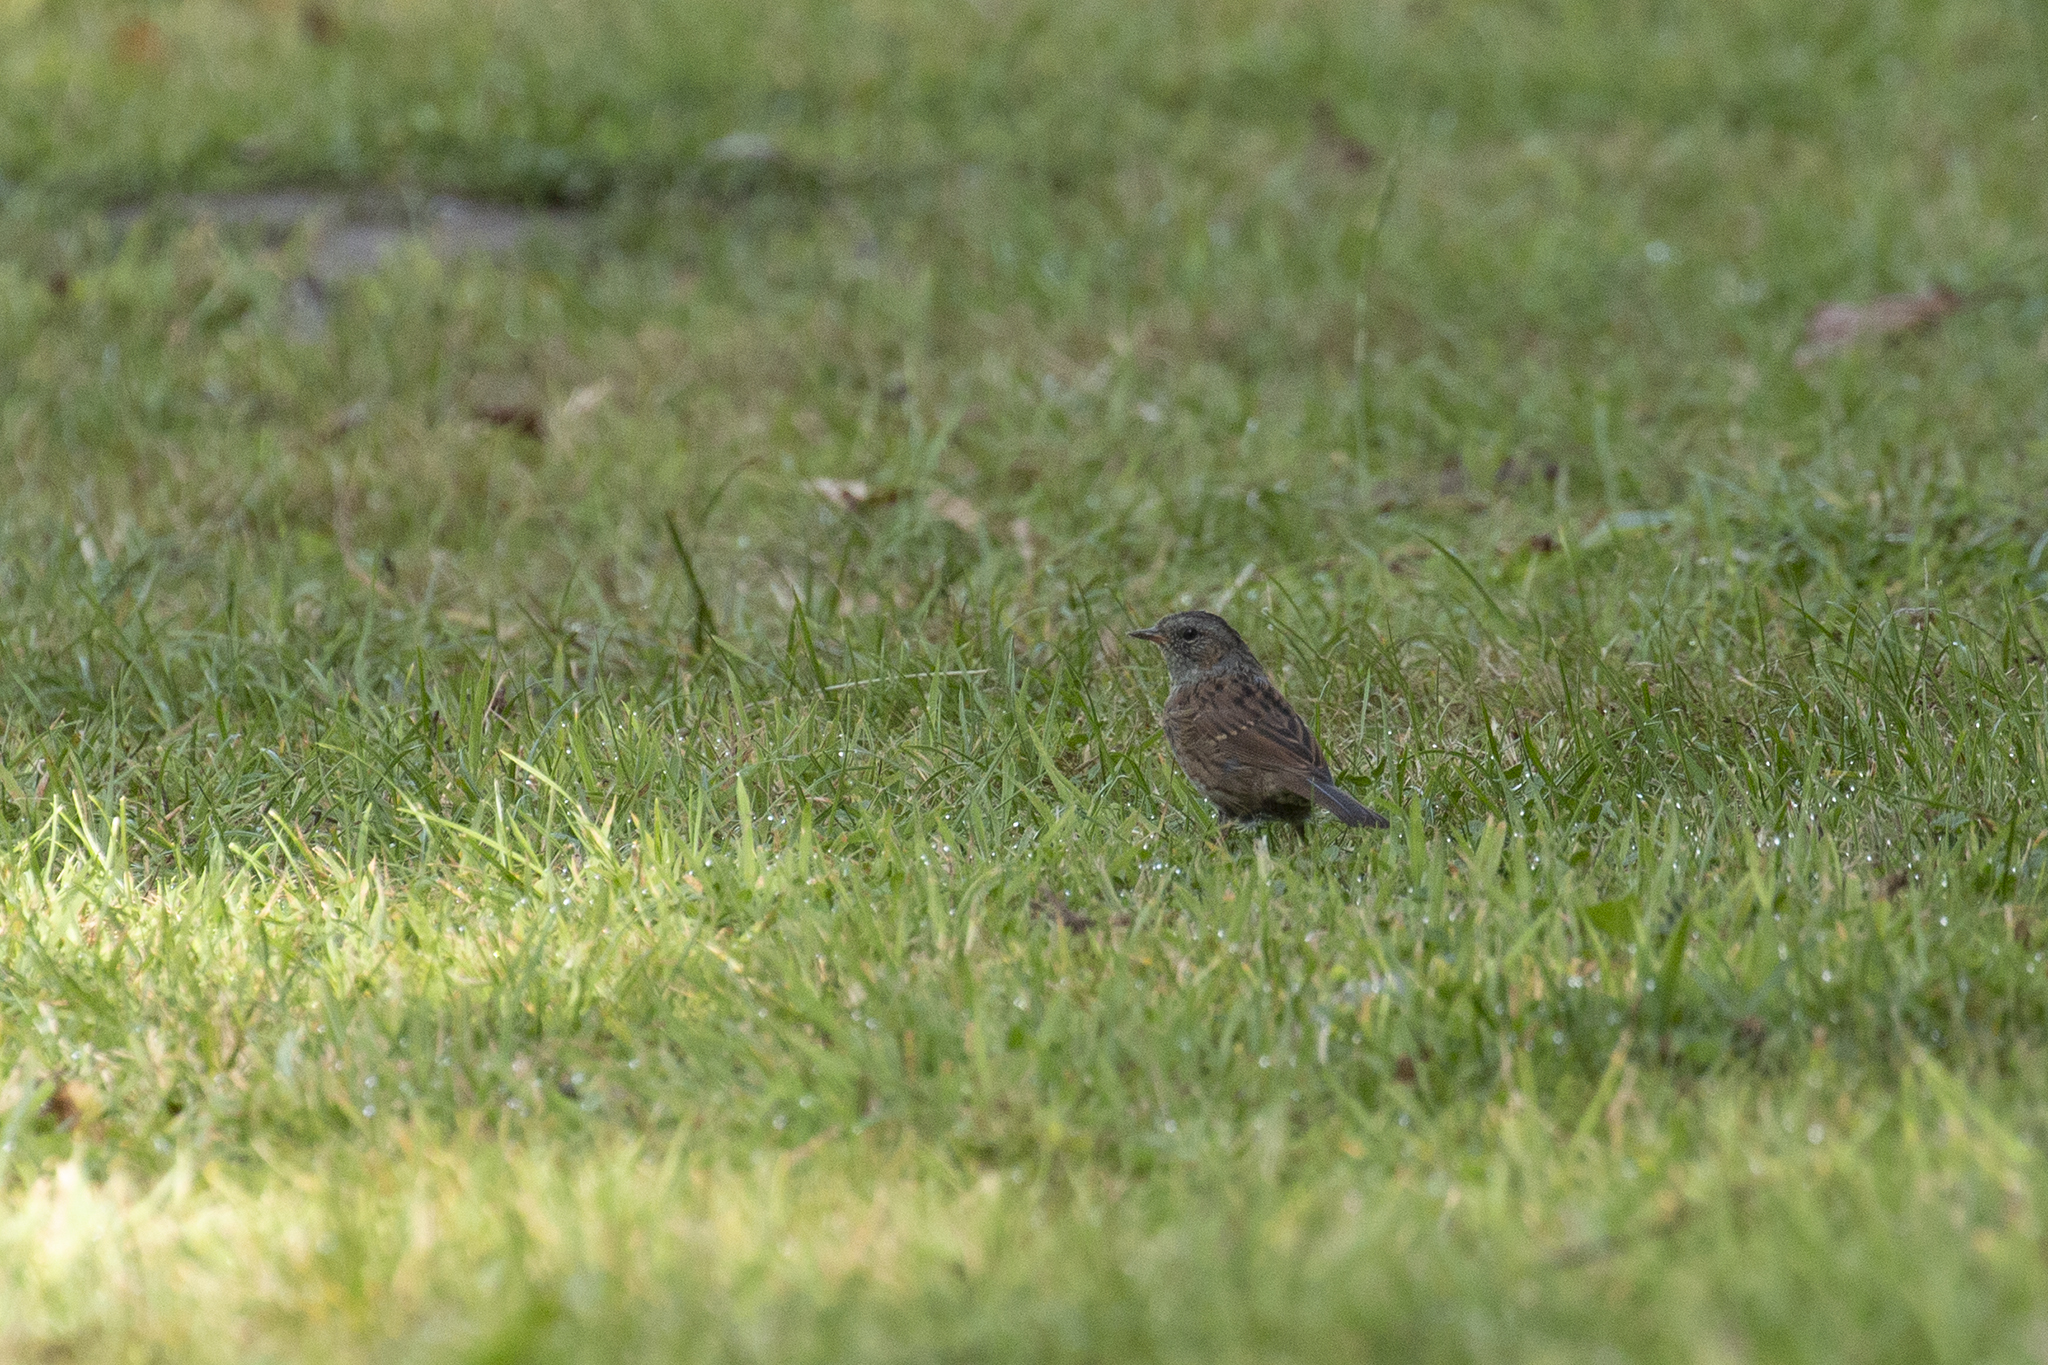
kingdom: Animalia
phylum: Chordata
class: Aves
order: Passeriformes
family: Prunellidae
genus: Prunella
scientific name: Prunella modularis
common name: Dunnock
